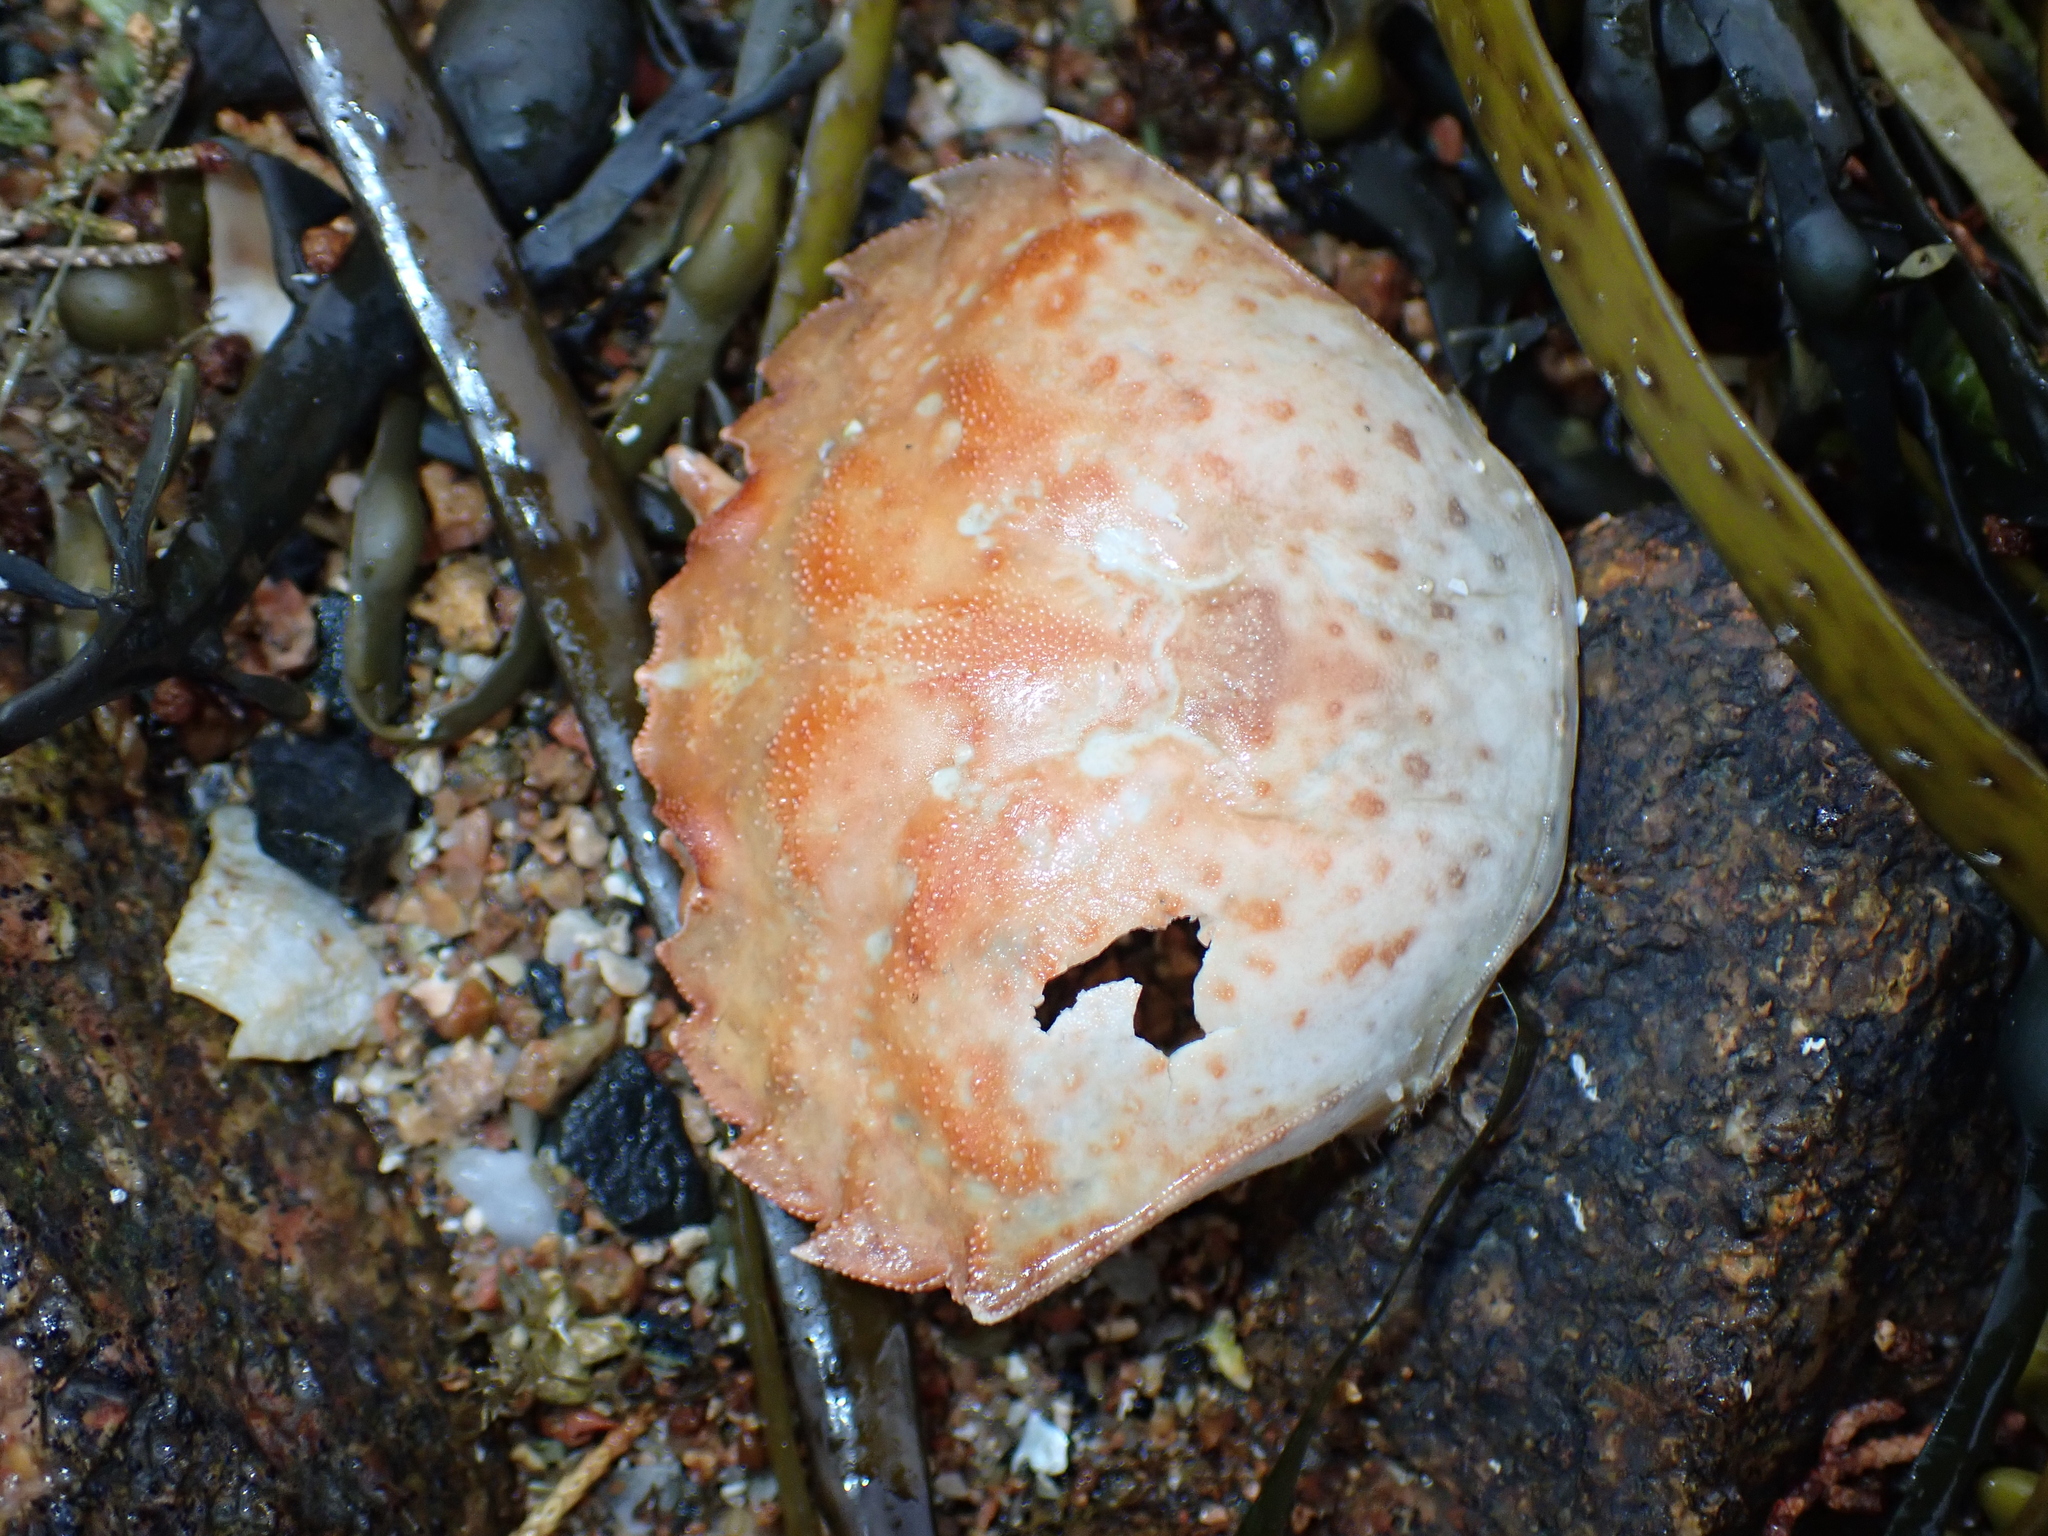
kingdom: Animalia
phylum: Arthropoda
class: Malacostraca
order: Decapoda
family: Carcinidae
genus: Carcinus
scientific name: Carcinus maenas
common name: European green crab
